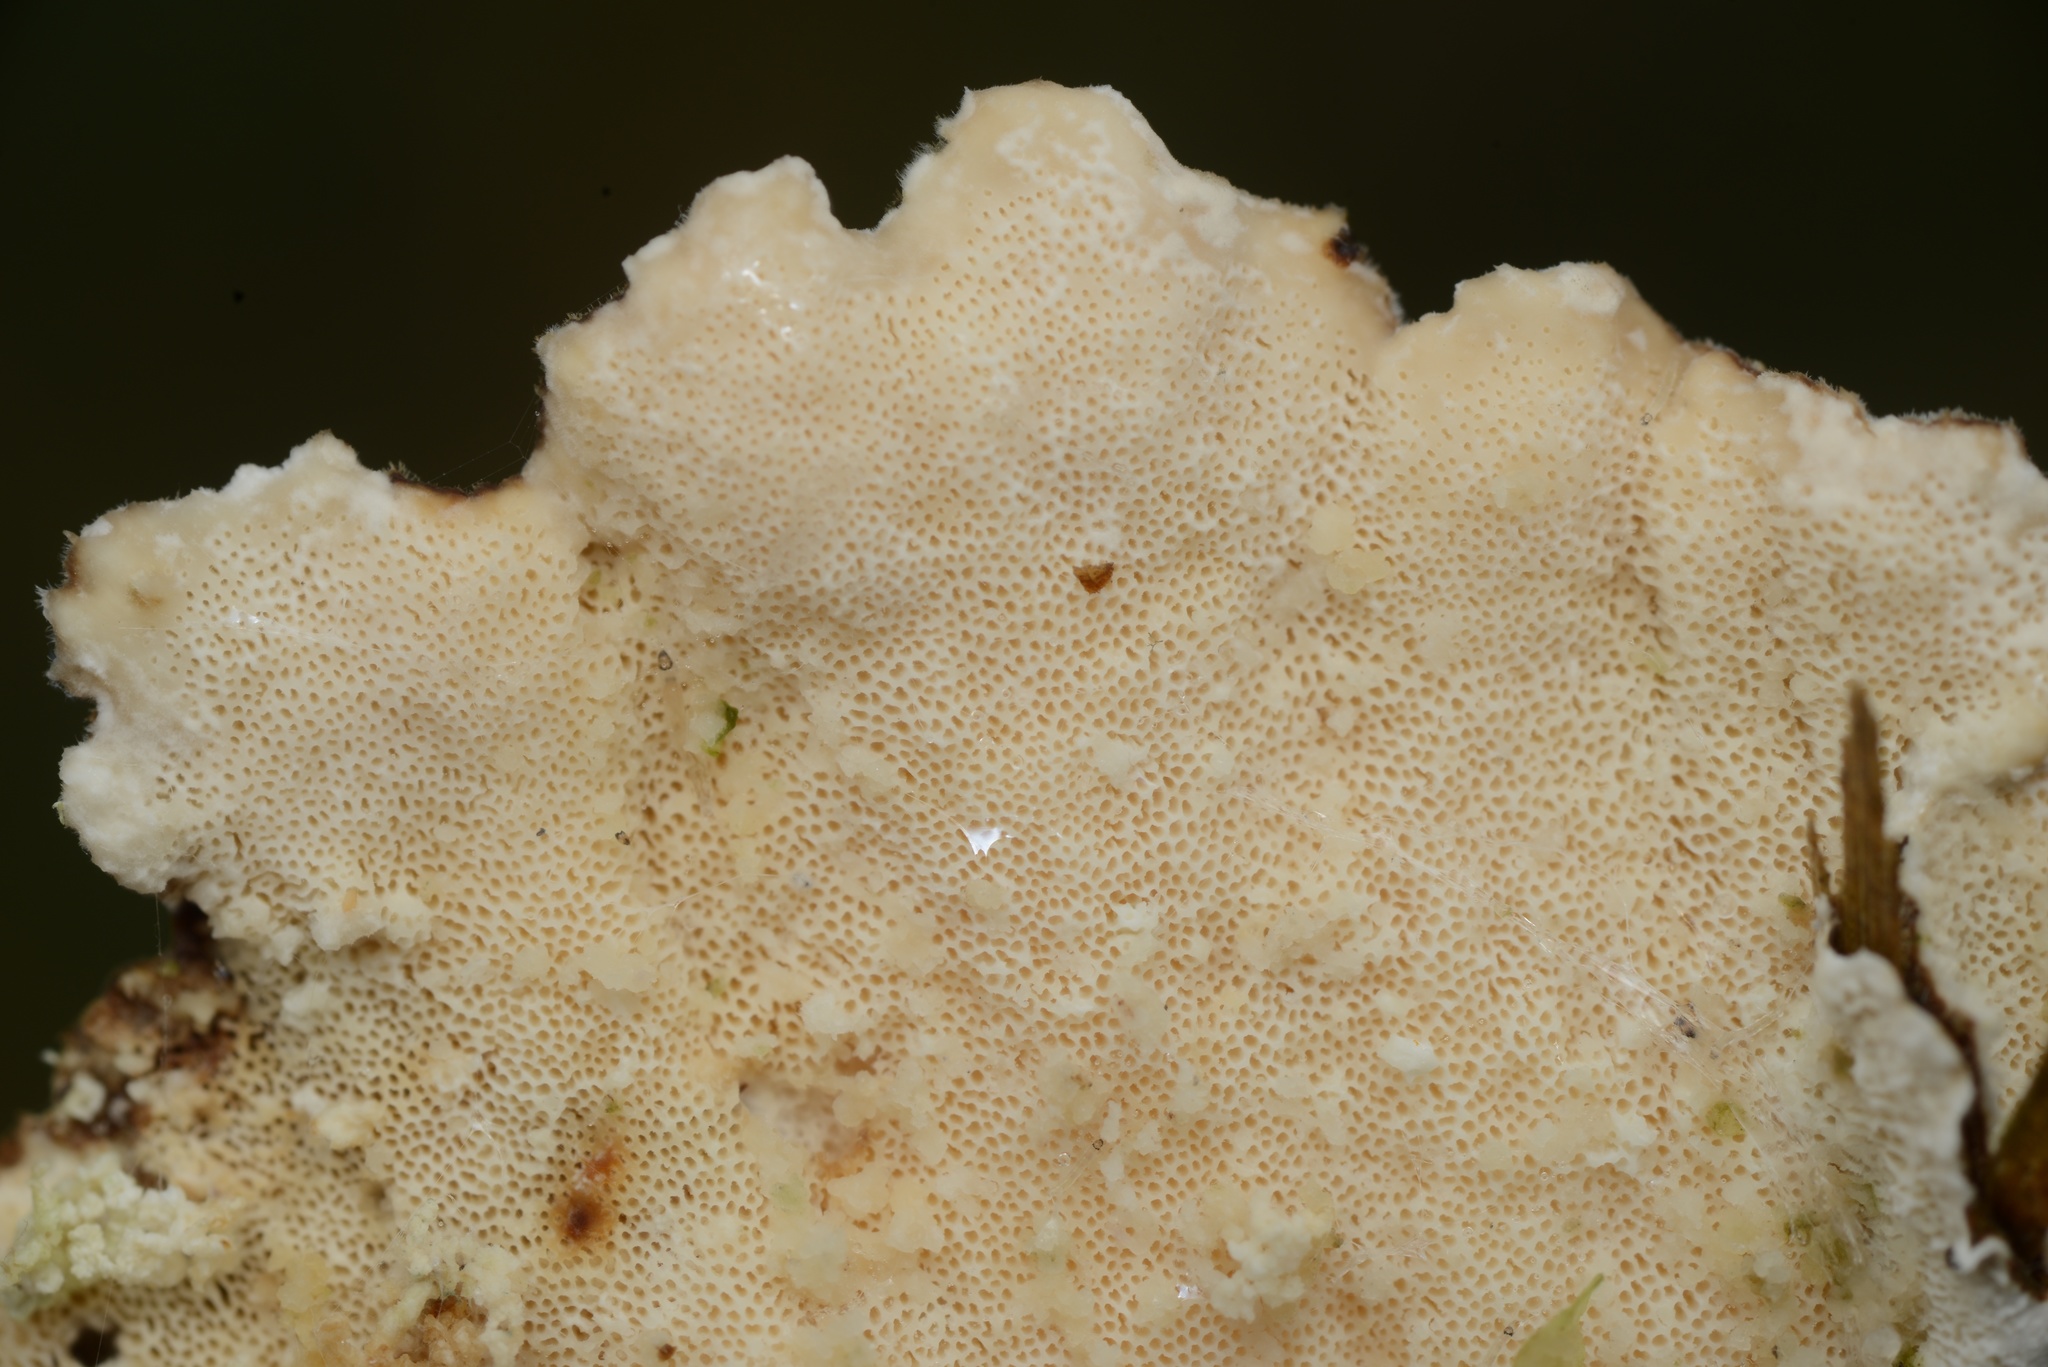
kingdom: Fungi
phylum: Basidiomycota
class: Agaricomycetes
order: Polyporales
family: Polyporaceae
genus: Trametes
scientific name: Trametes versicolor
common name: Turkeytail
